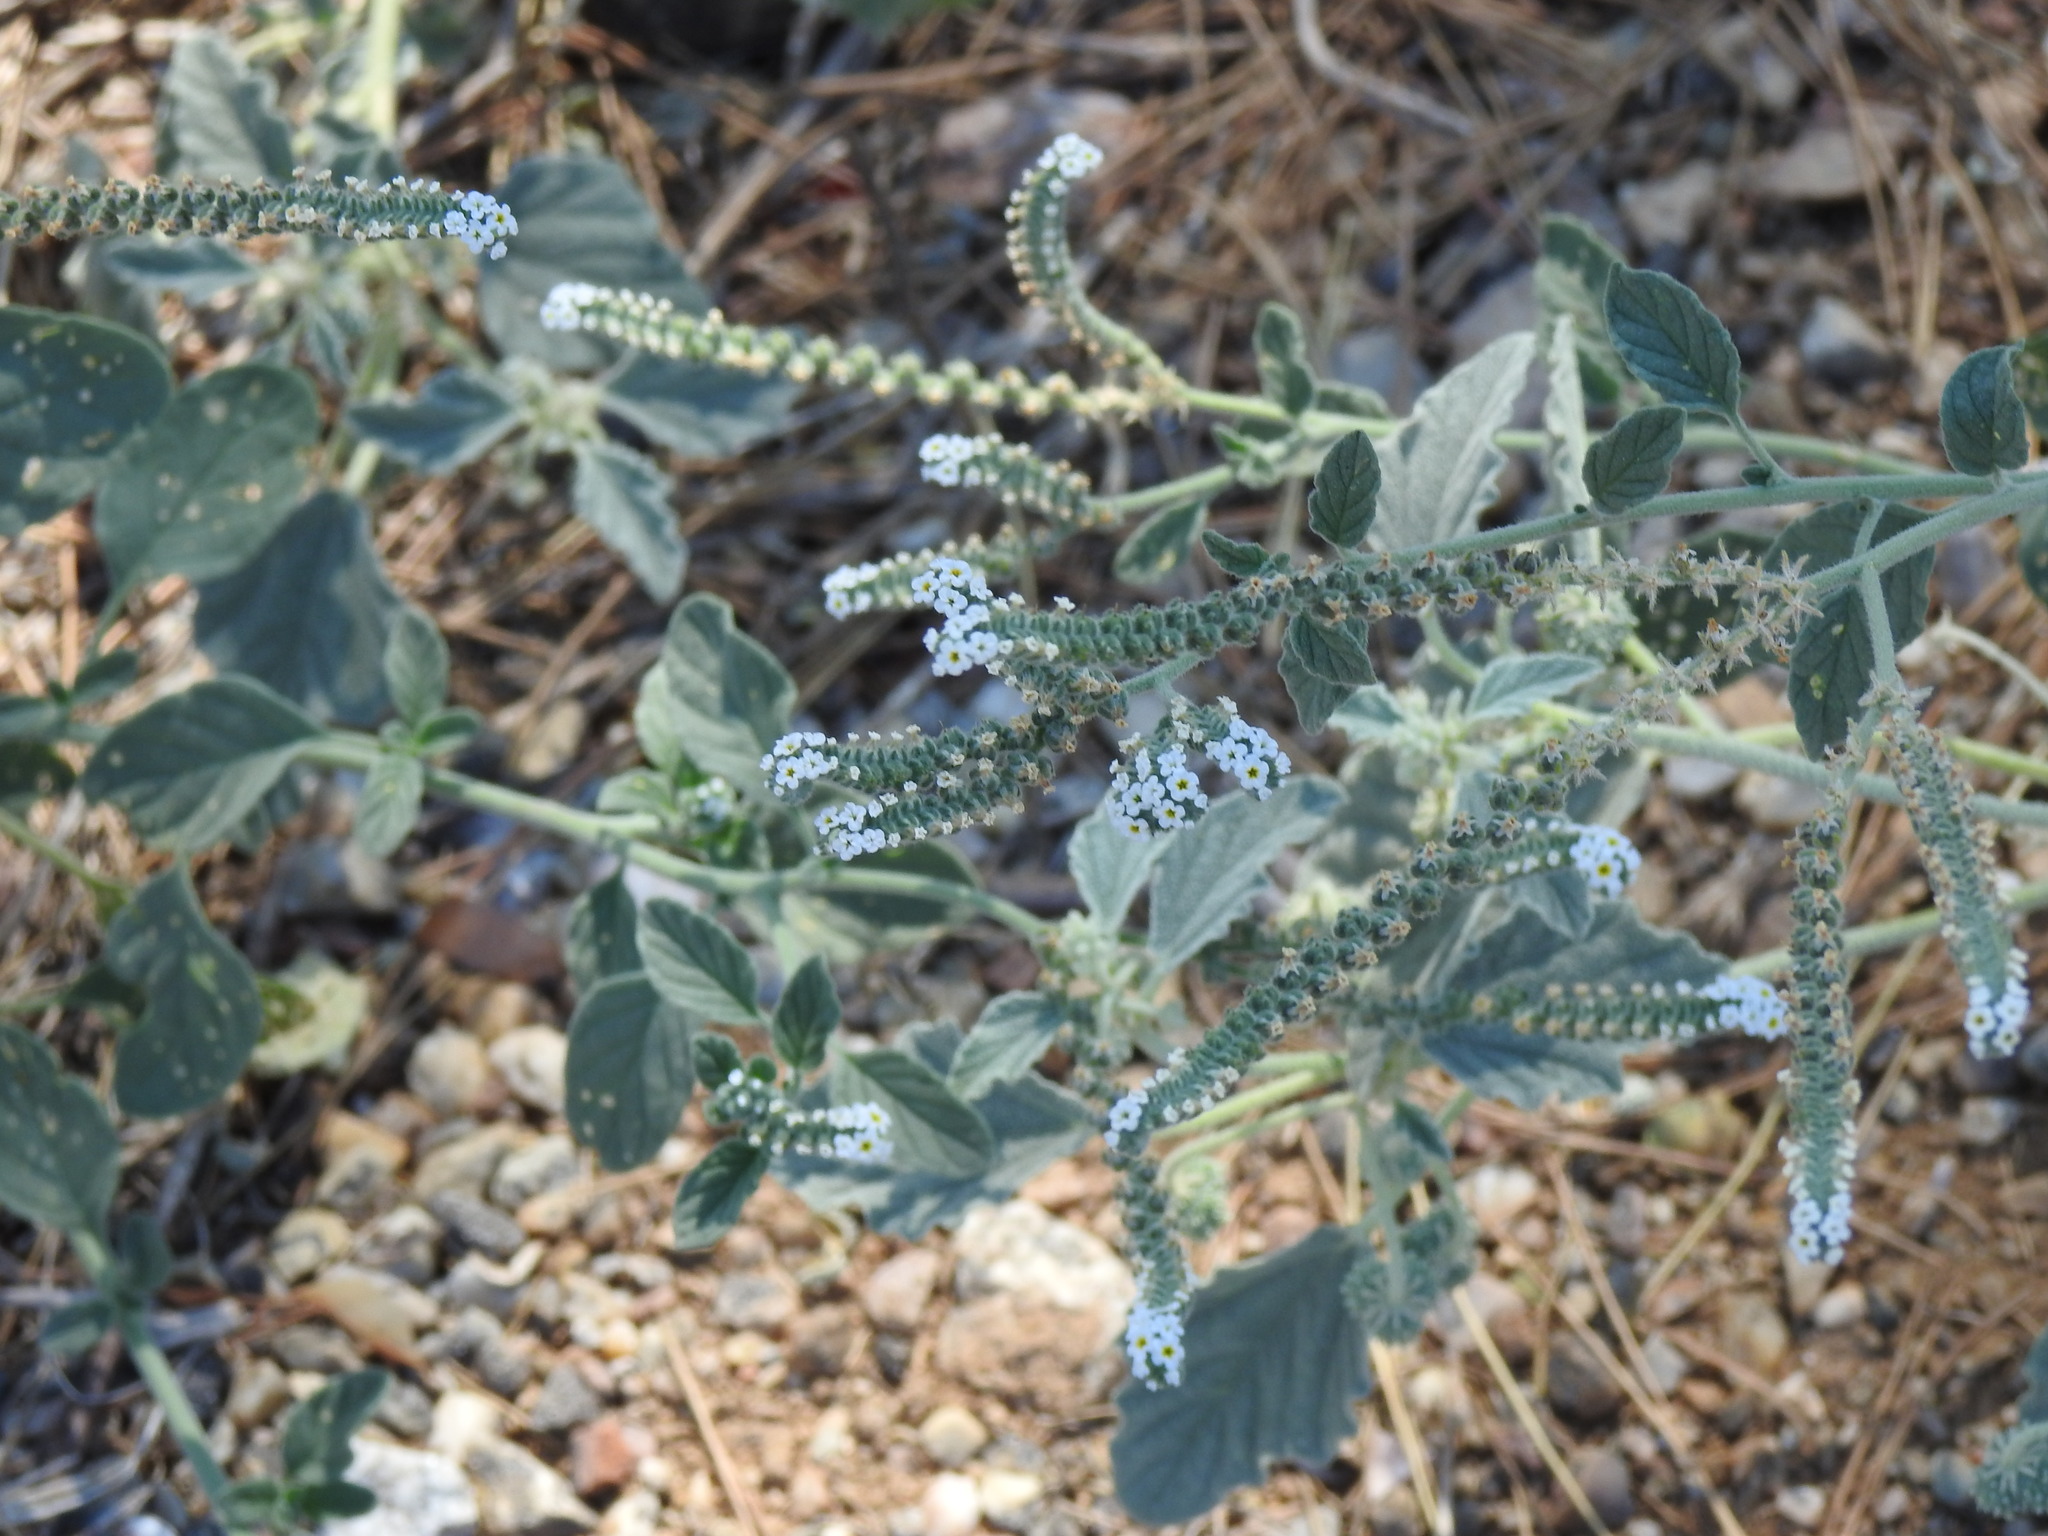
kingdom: Plantae
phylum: Tracheophyta
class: Magnoliopsida
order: Boraginales
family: Heliotropiaceae
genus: Heliotropium
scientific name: Heliotropium europaeum
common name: European heliotrope
